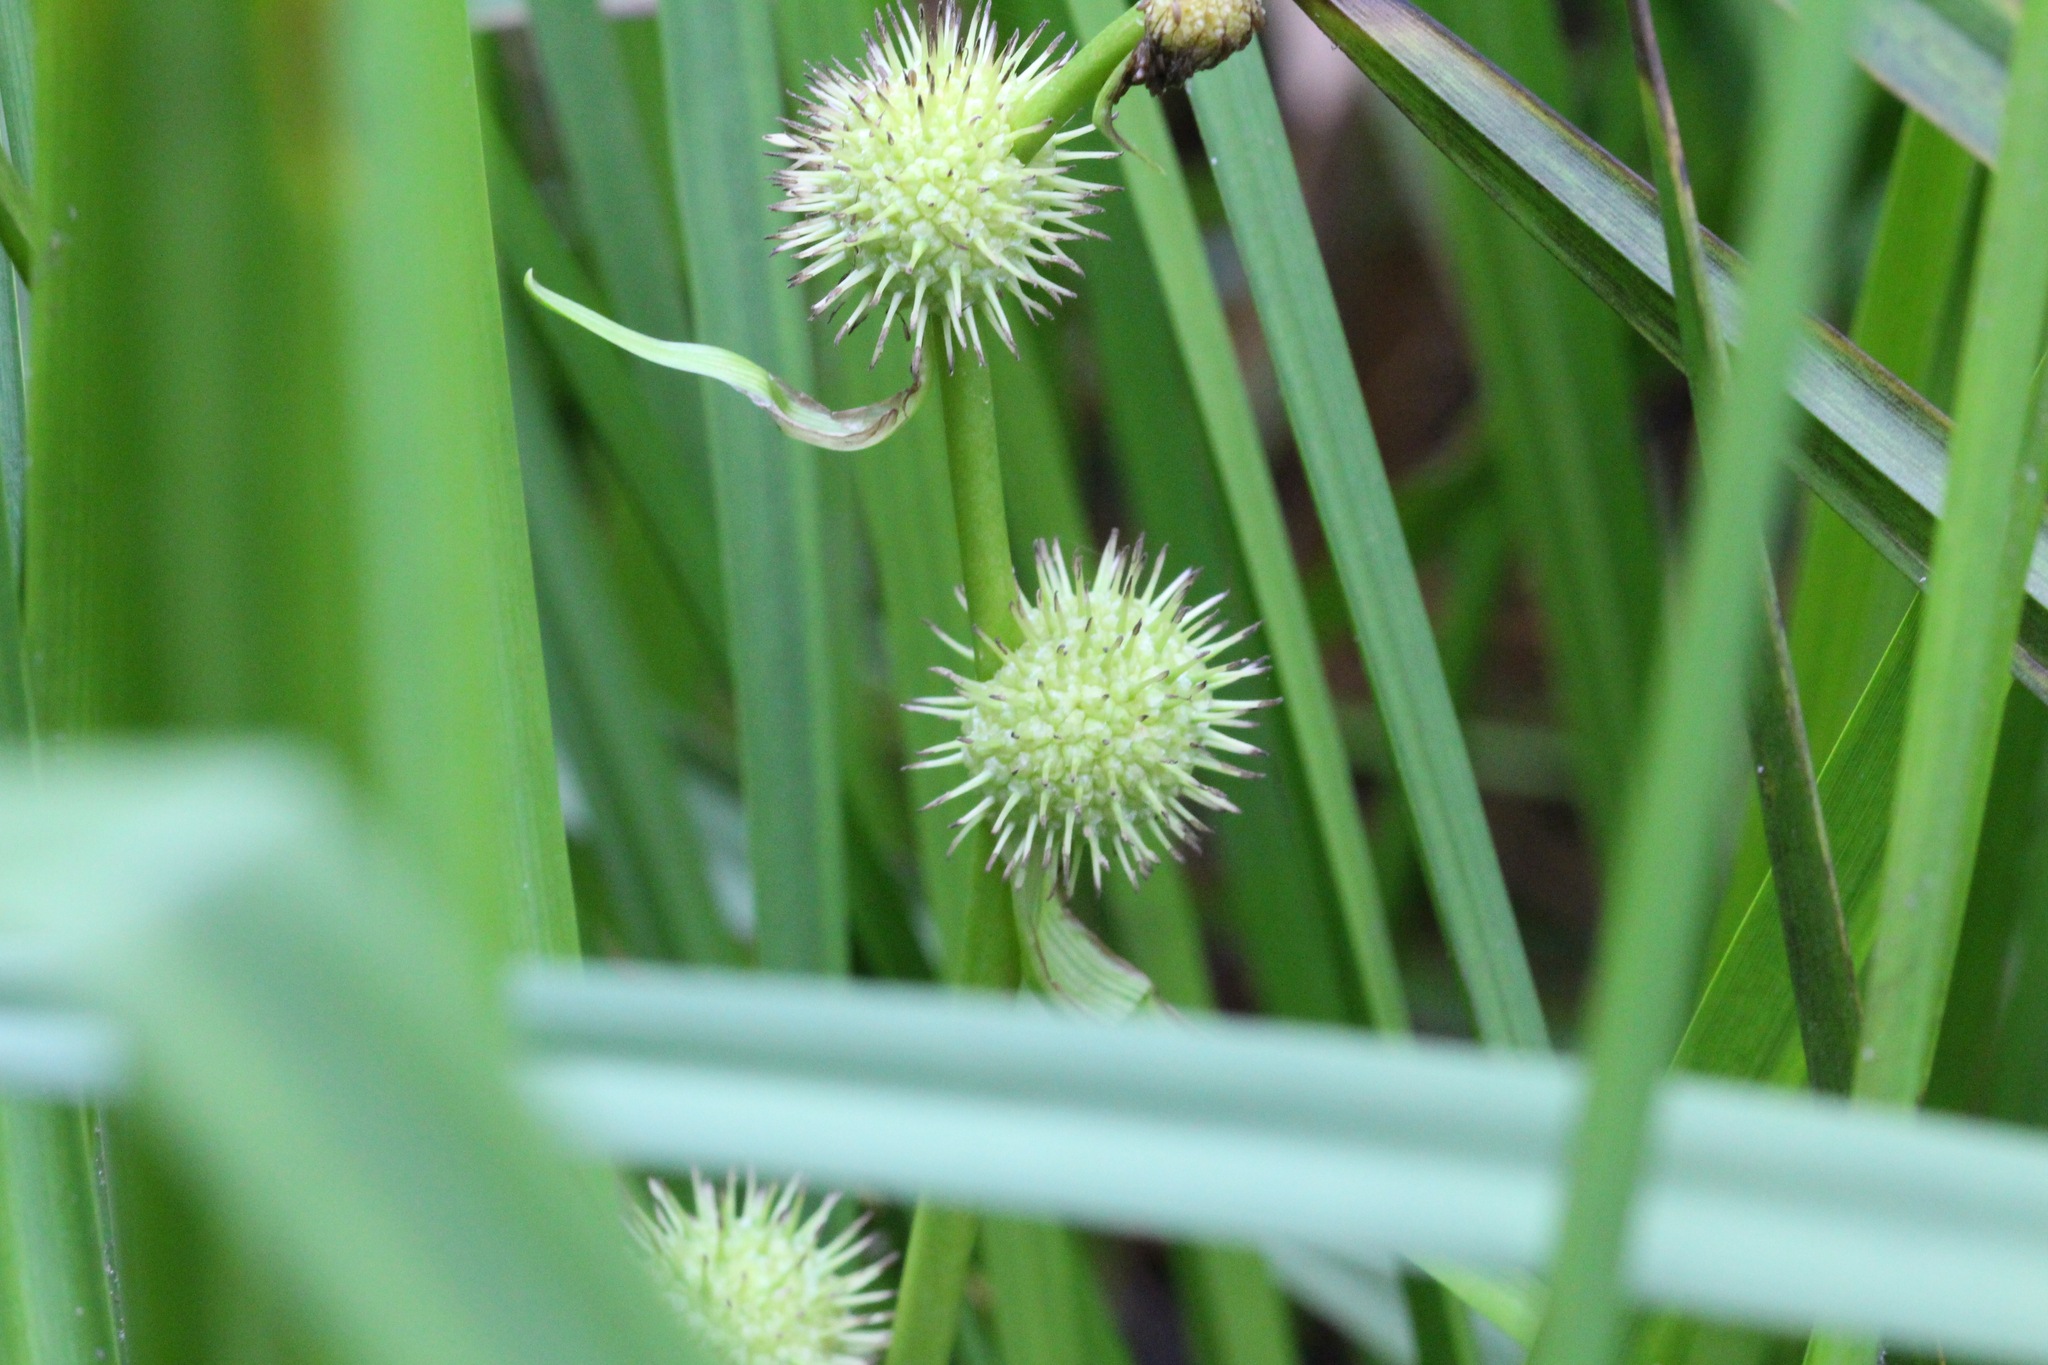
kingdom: Plantae
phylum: Tracheophyta
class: Liliopsida
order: Poales
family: Typhaceae
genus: Sparganium
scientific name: Sparganium americanum
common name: American burreed
